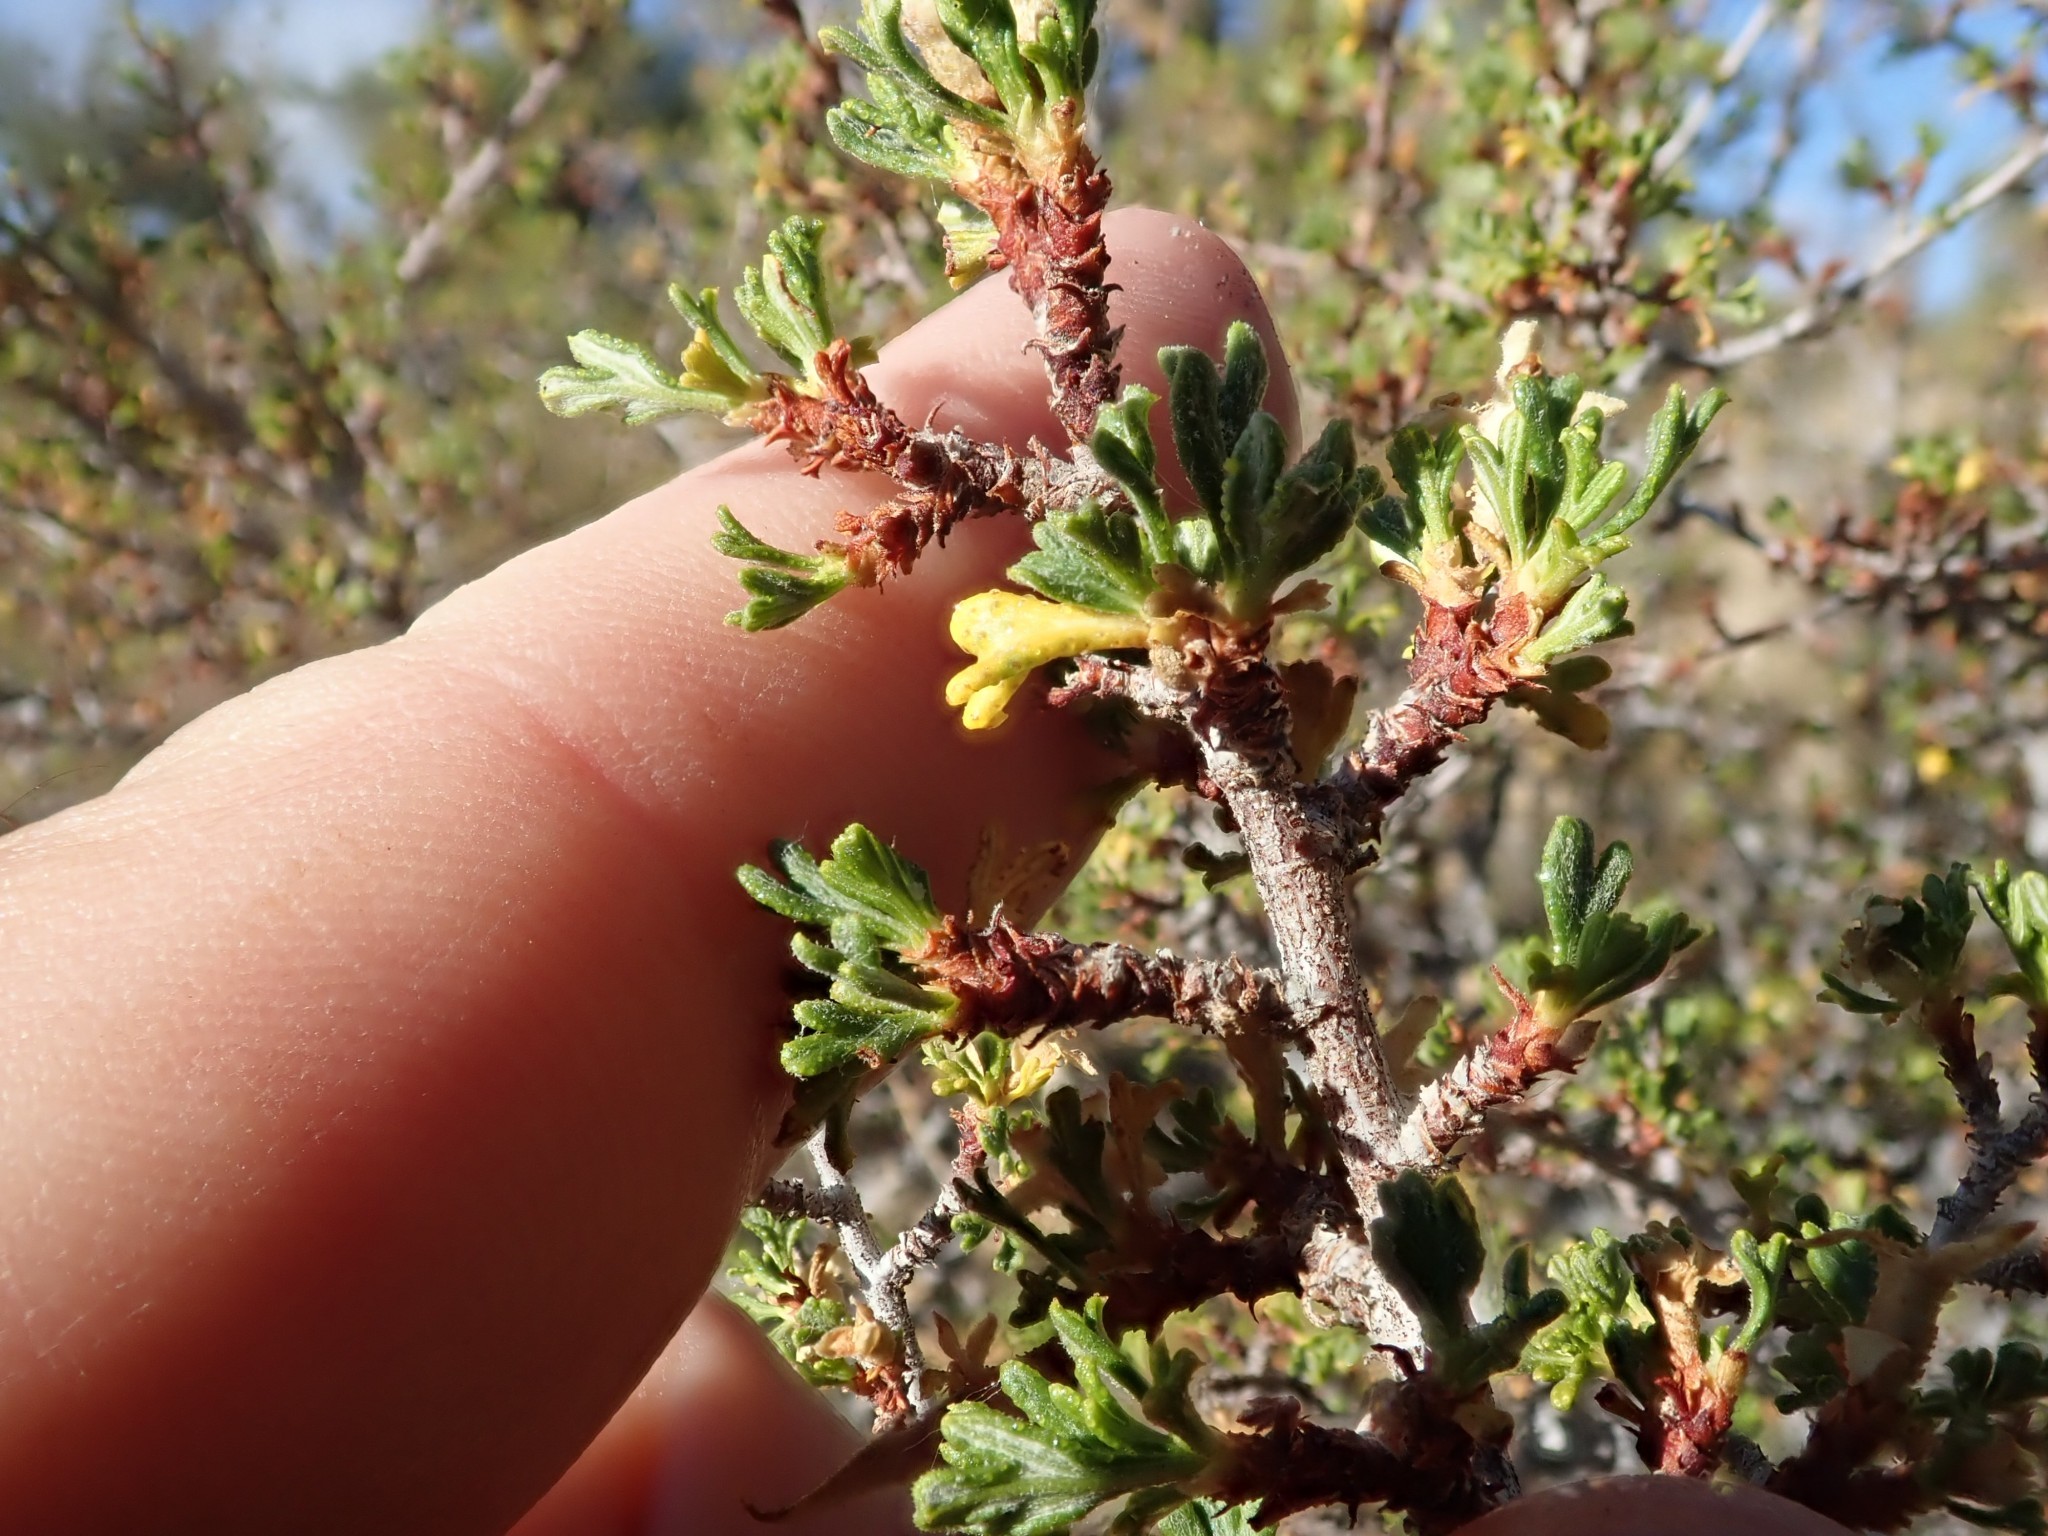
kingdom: Plantae
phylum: Tracheophyta
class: Magnoliopsida
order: Rosales
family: Rosaceae
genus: Purshia
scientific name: Purshia tridentata
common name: Antelope bitterbrush
